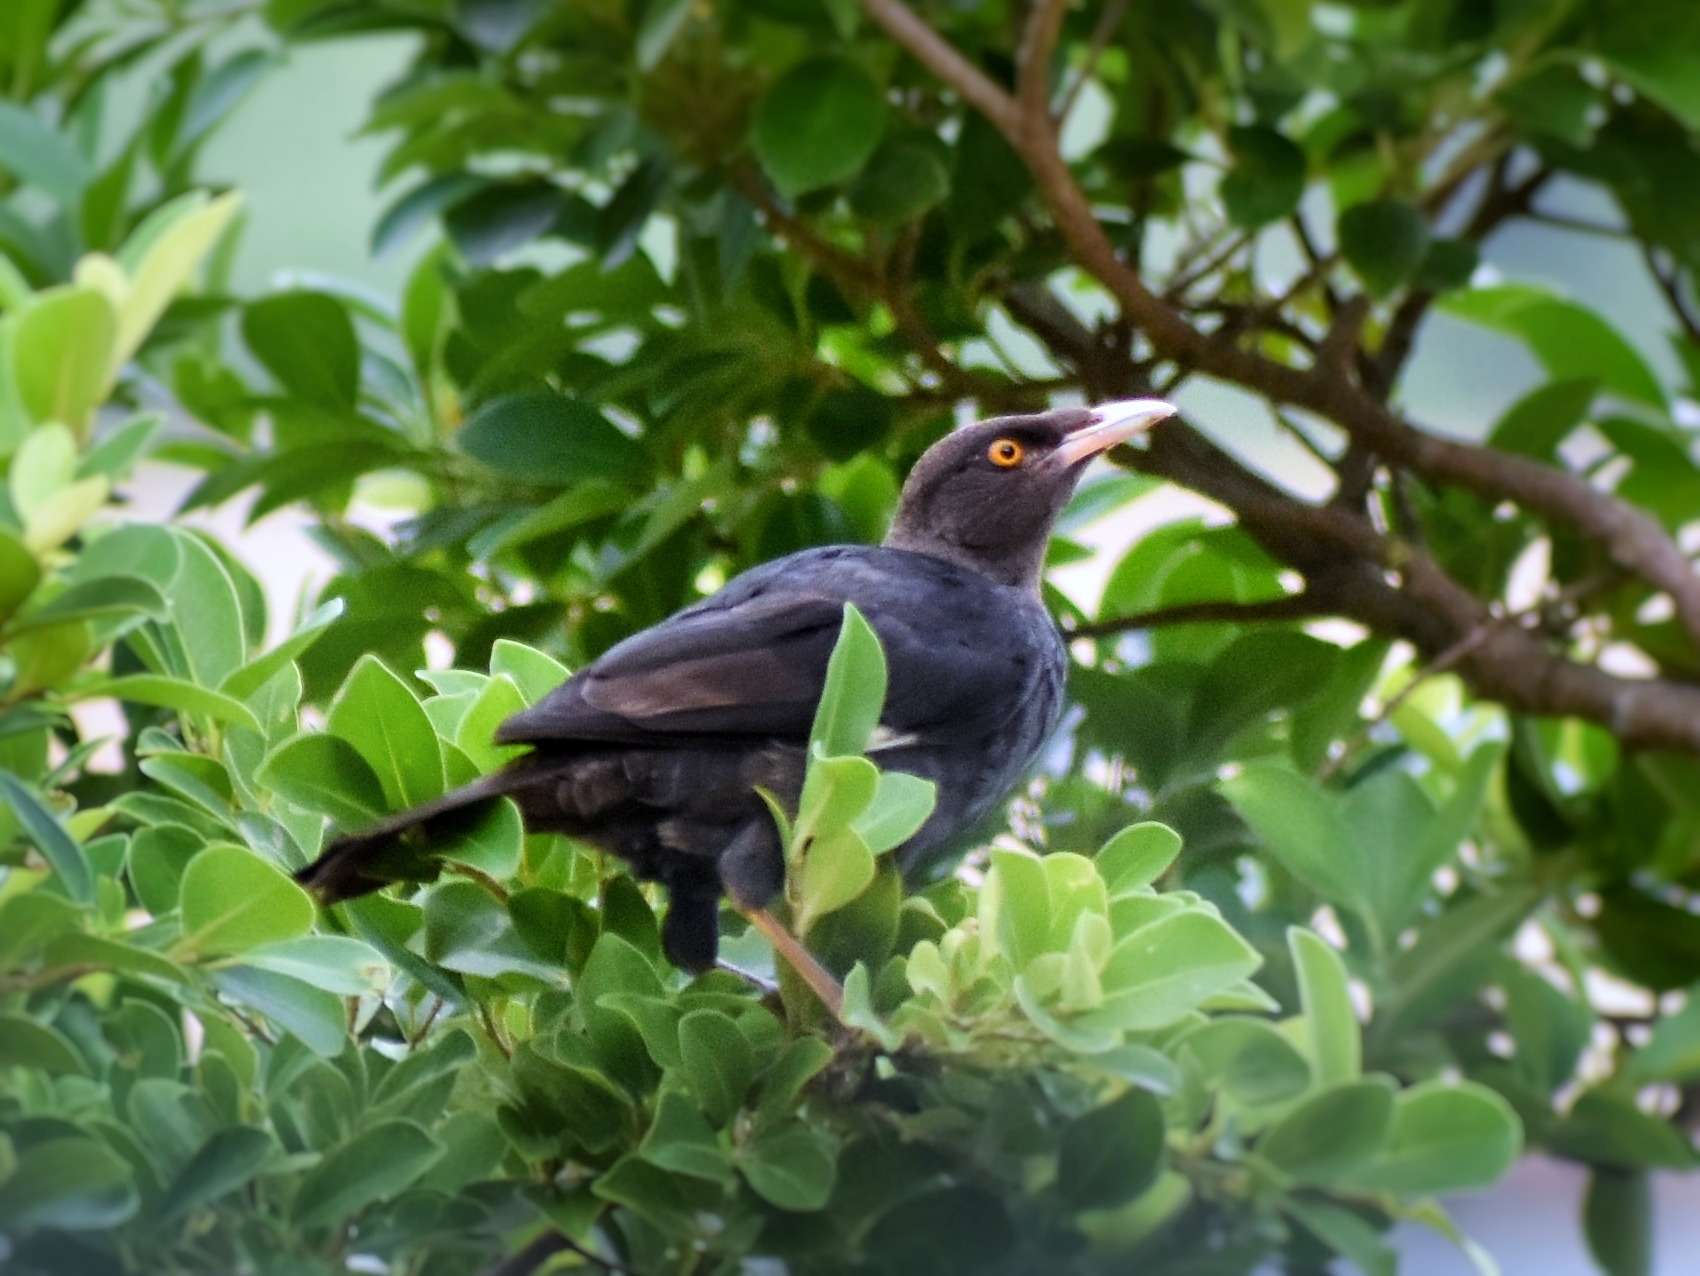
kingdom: Animalia
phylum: Chordata
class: Aves
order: Passeriformes
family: Sturnidae
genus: Acridotheres
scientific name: Acridotheres cristatellus
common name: Crested myna
